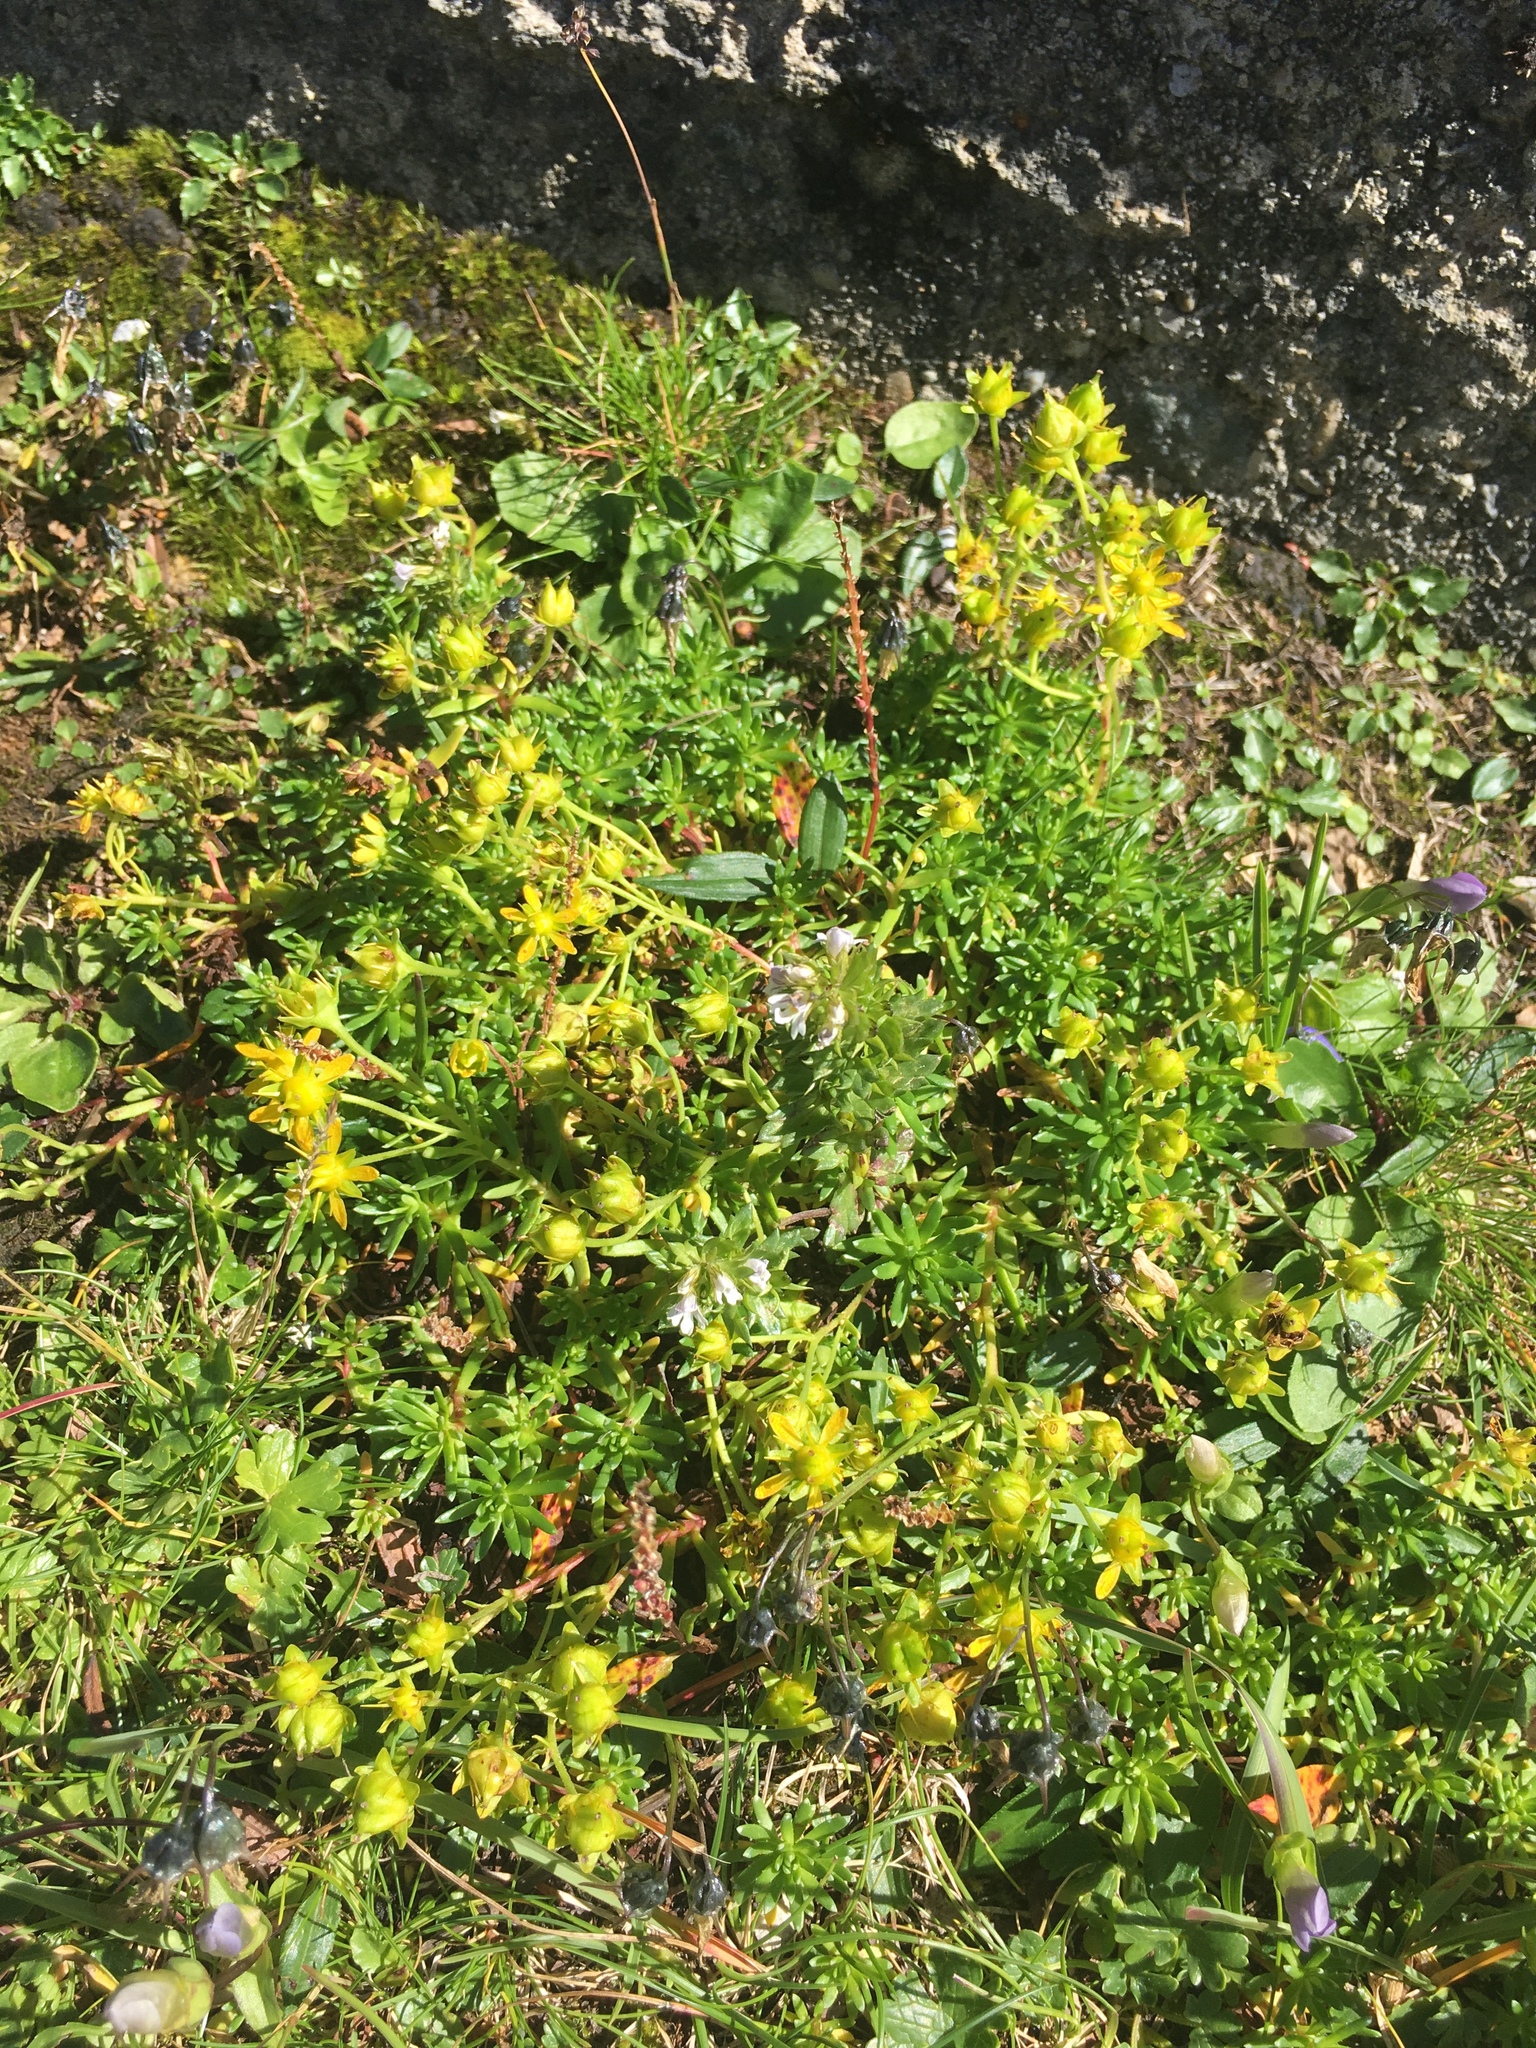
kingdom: Plantae
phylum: Tracheophyta
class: Magnoliopsida
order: Saxifragales
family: Saxifragaceae
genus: Saxifraga
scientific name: Saxifraga aizoides
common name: Yellow mountain saxifrage
